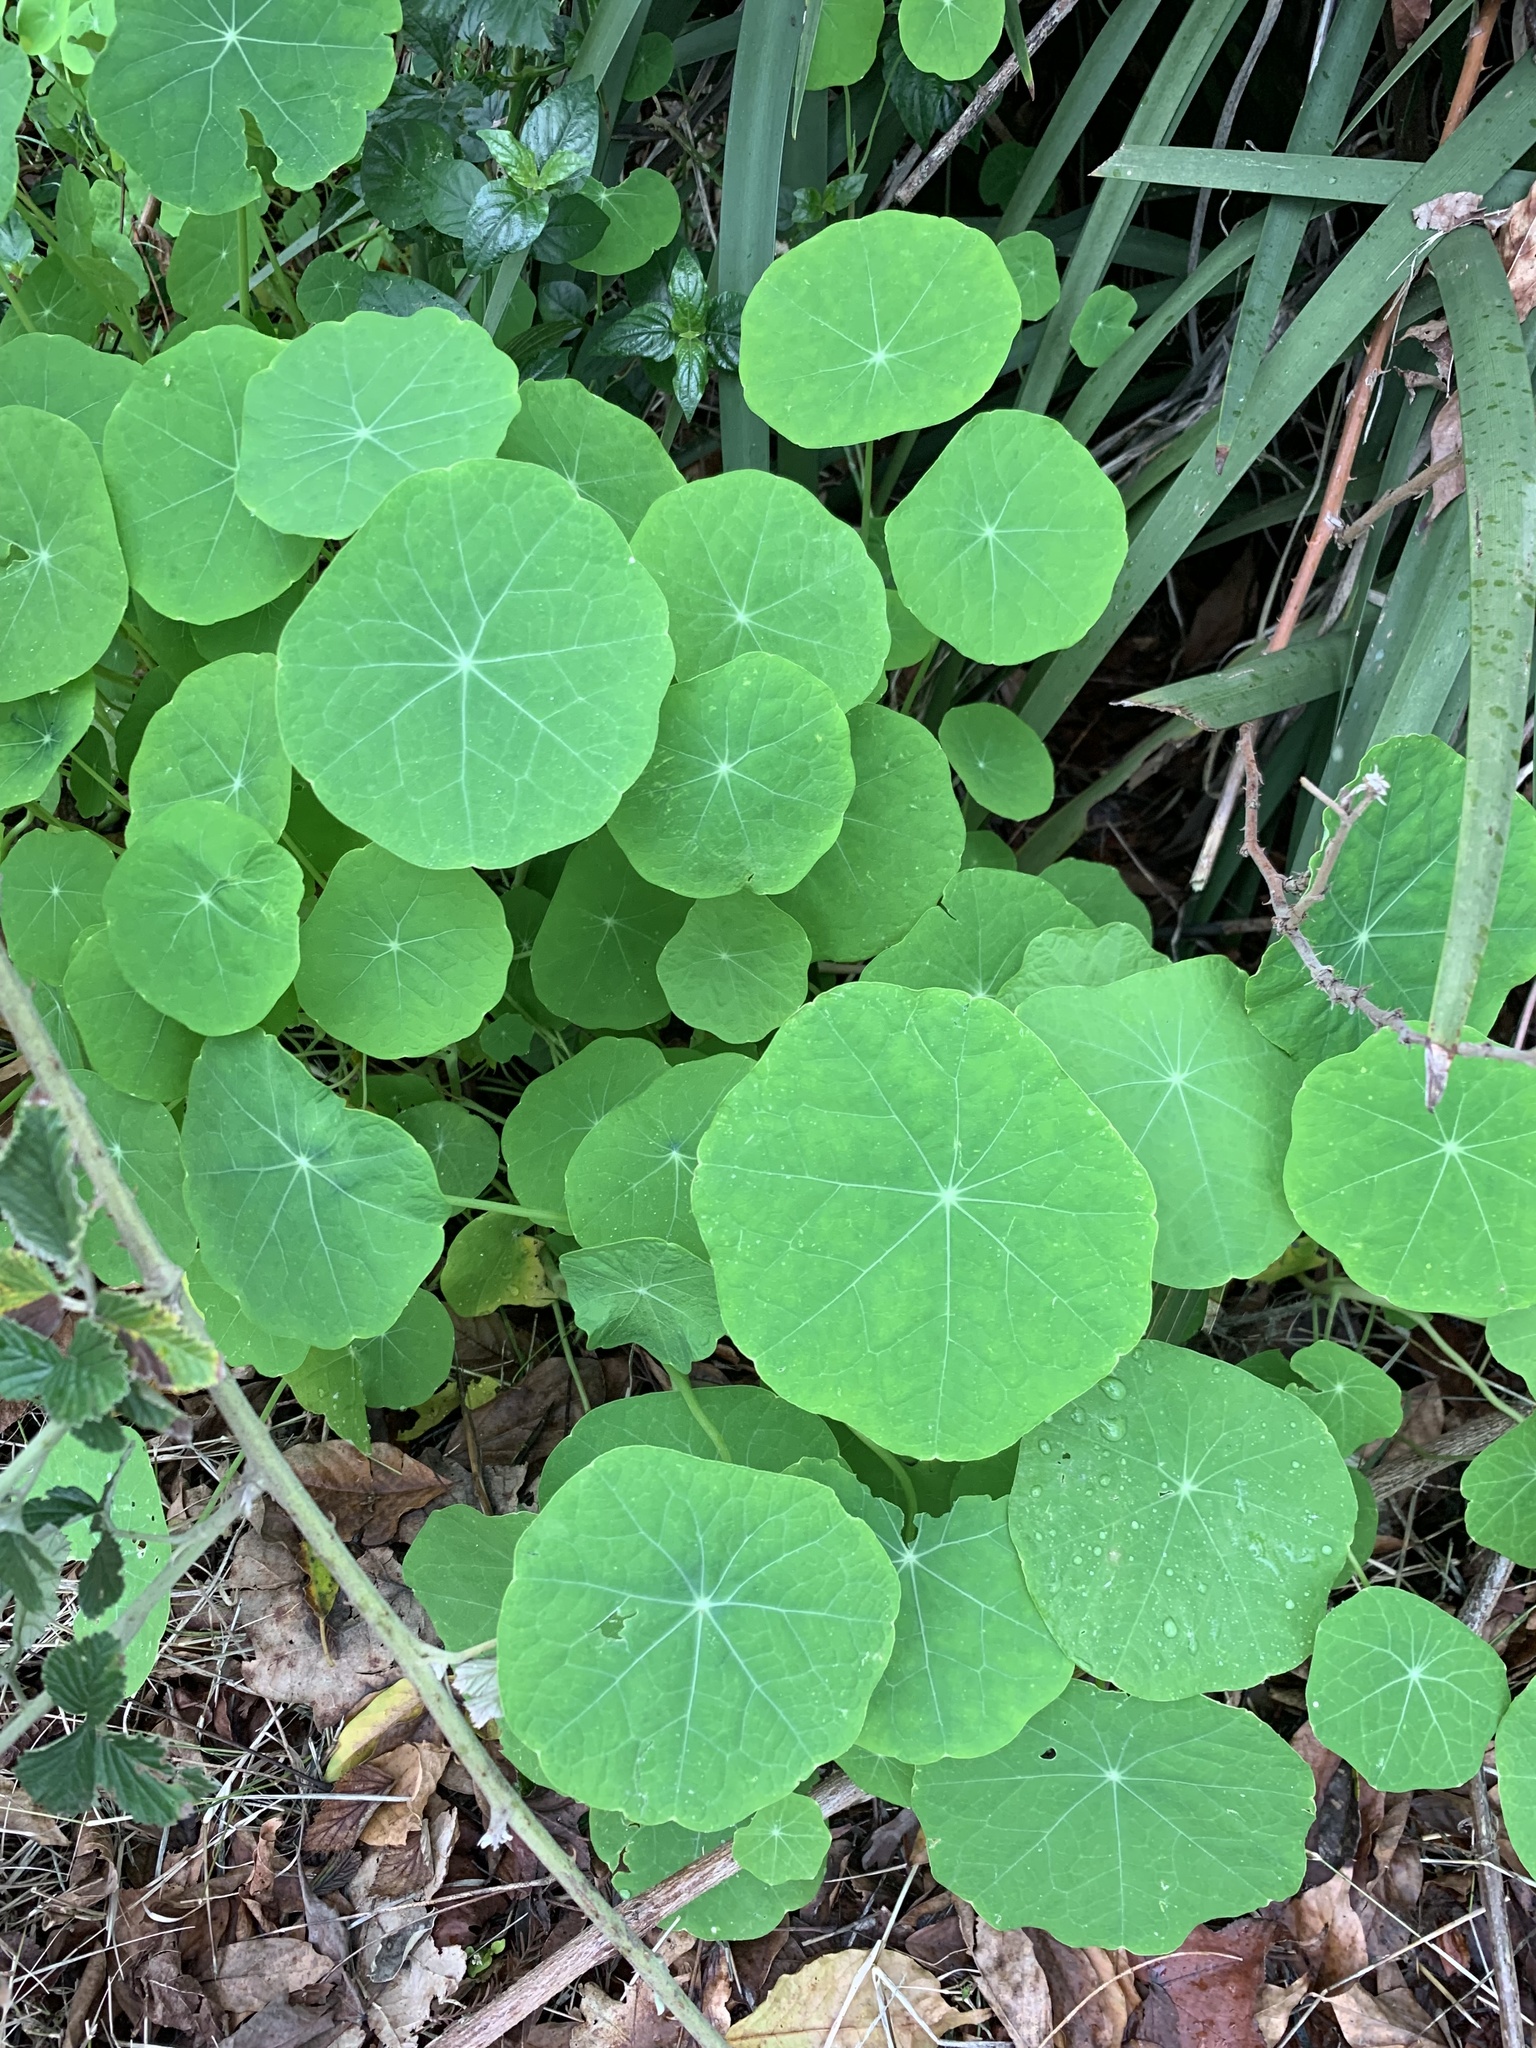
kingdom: Plantae
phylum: Tracheophyta
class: Magnoliopsida
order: Brassicales
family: Tropaeolaceae
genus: Tropaeolum
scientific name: Tropaeolum majus
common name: Nasturtium
